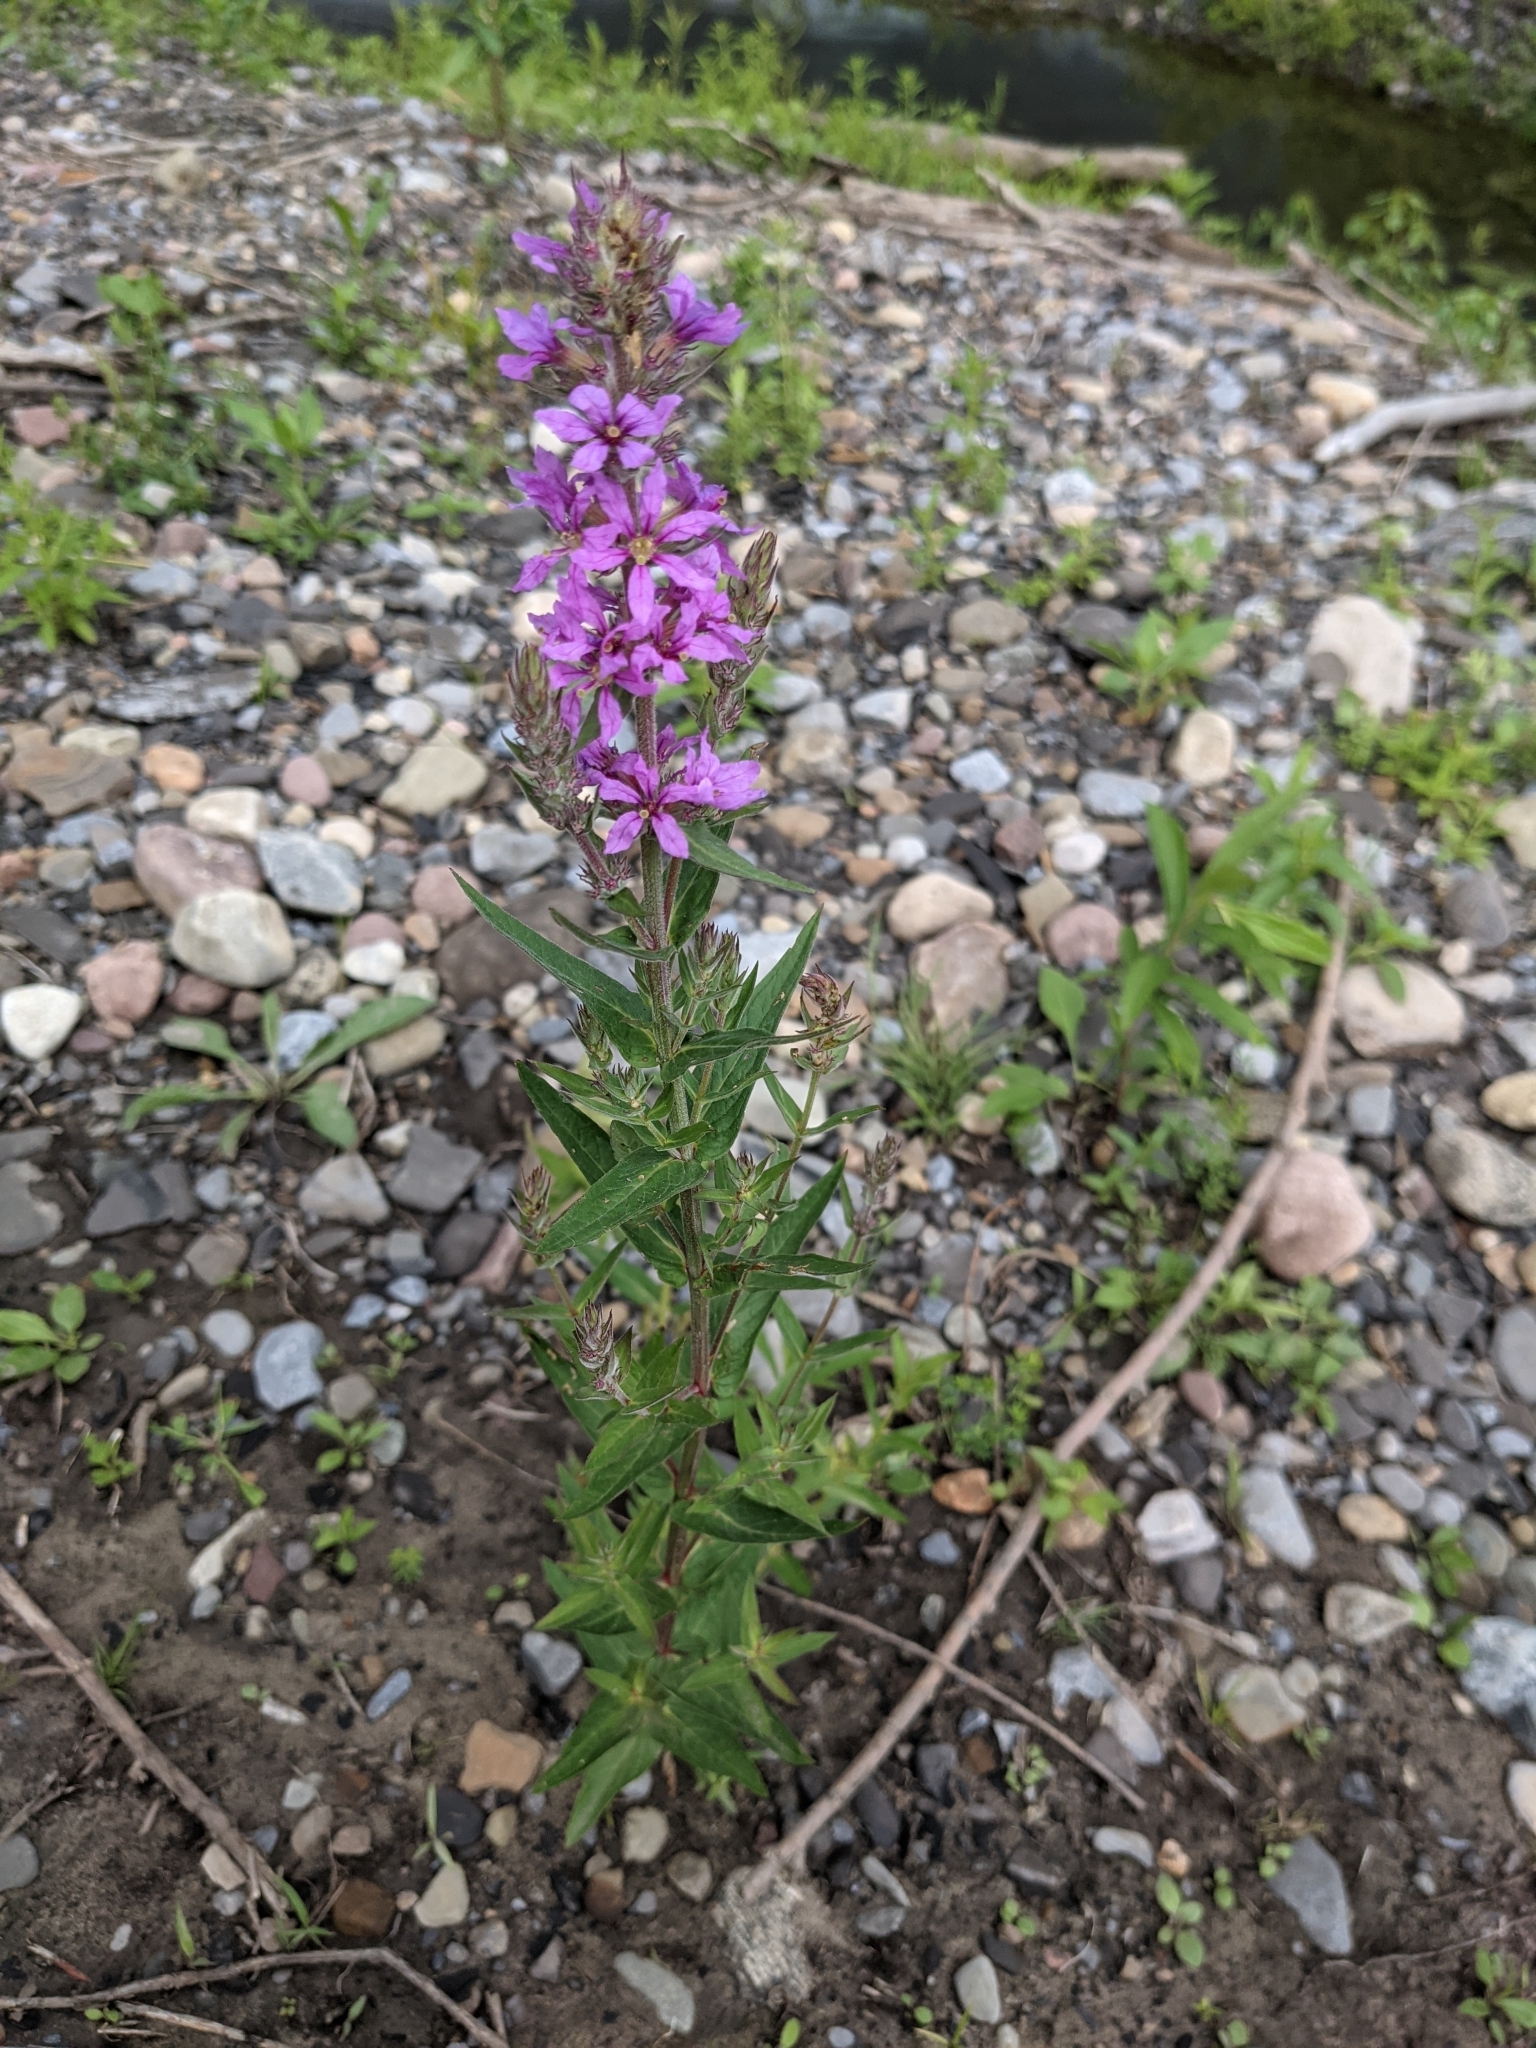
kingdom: Plantae
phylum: Tracheophyta
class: Magnoliopsida
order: Myrtales
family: Lythraceae
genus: Lythrum
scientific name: Lythrum salicaria
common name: Purple loosestrife
